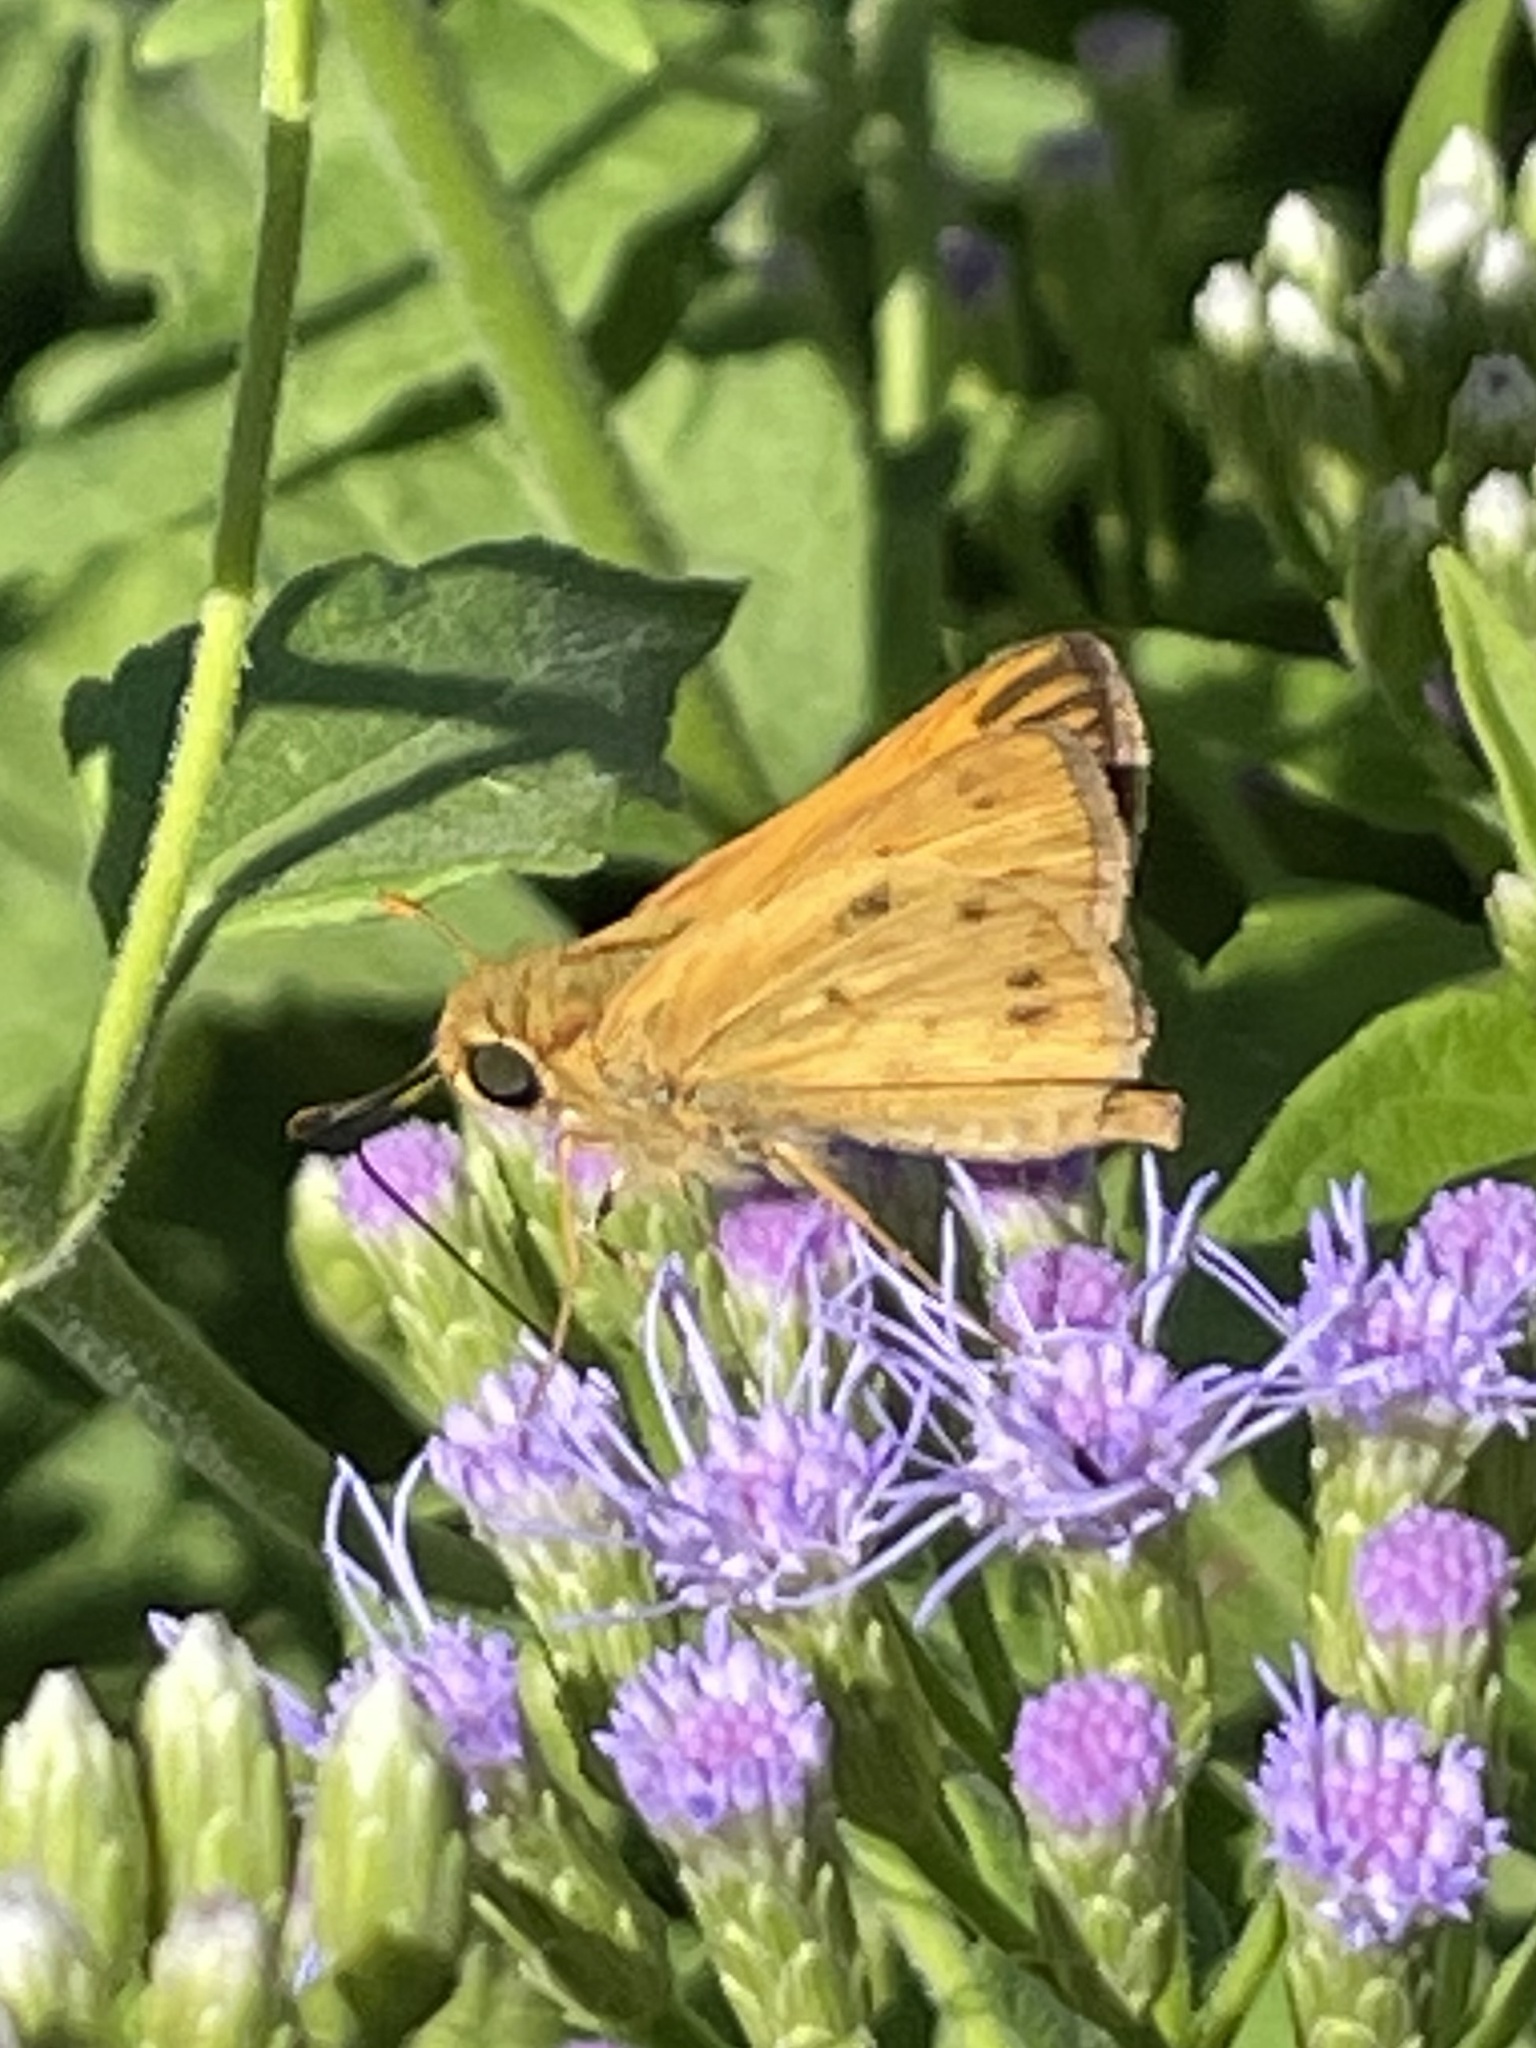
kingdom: Animalia
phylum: Arthropoda
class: Insecta
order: Lepidoptera
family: Hesperiidae
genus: Hylephila
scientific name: Hylephila phyleus
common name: Fiery skipper
